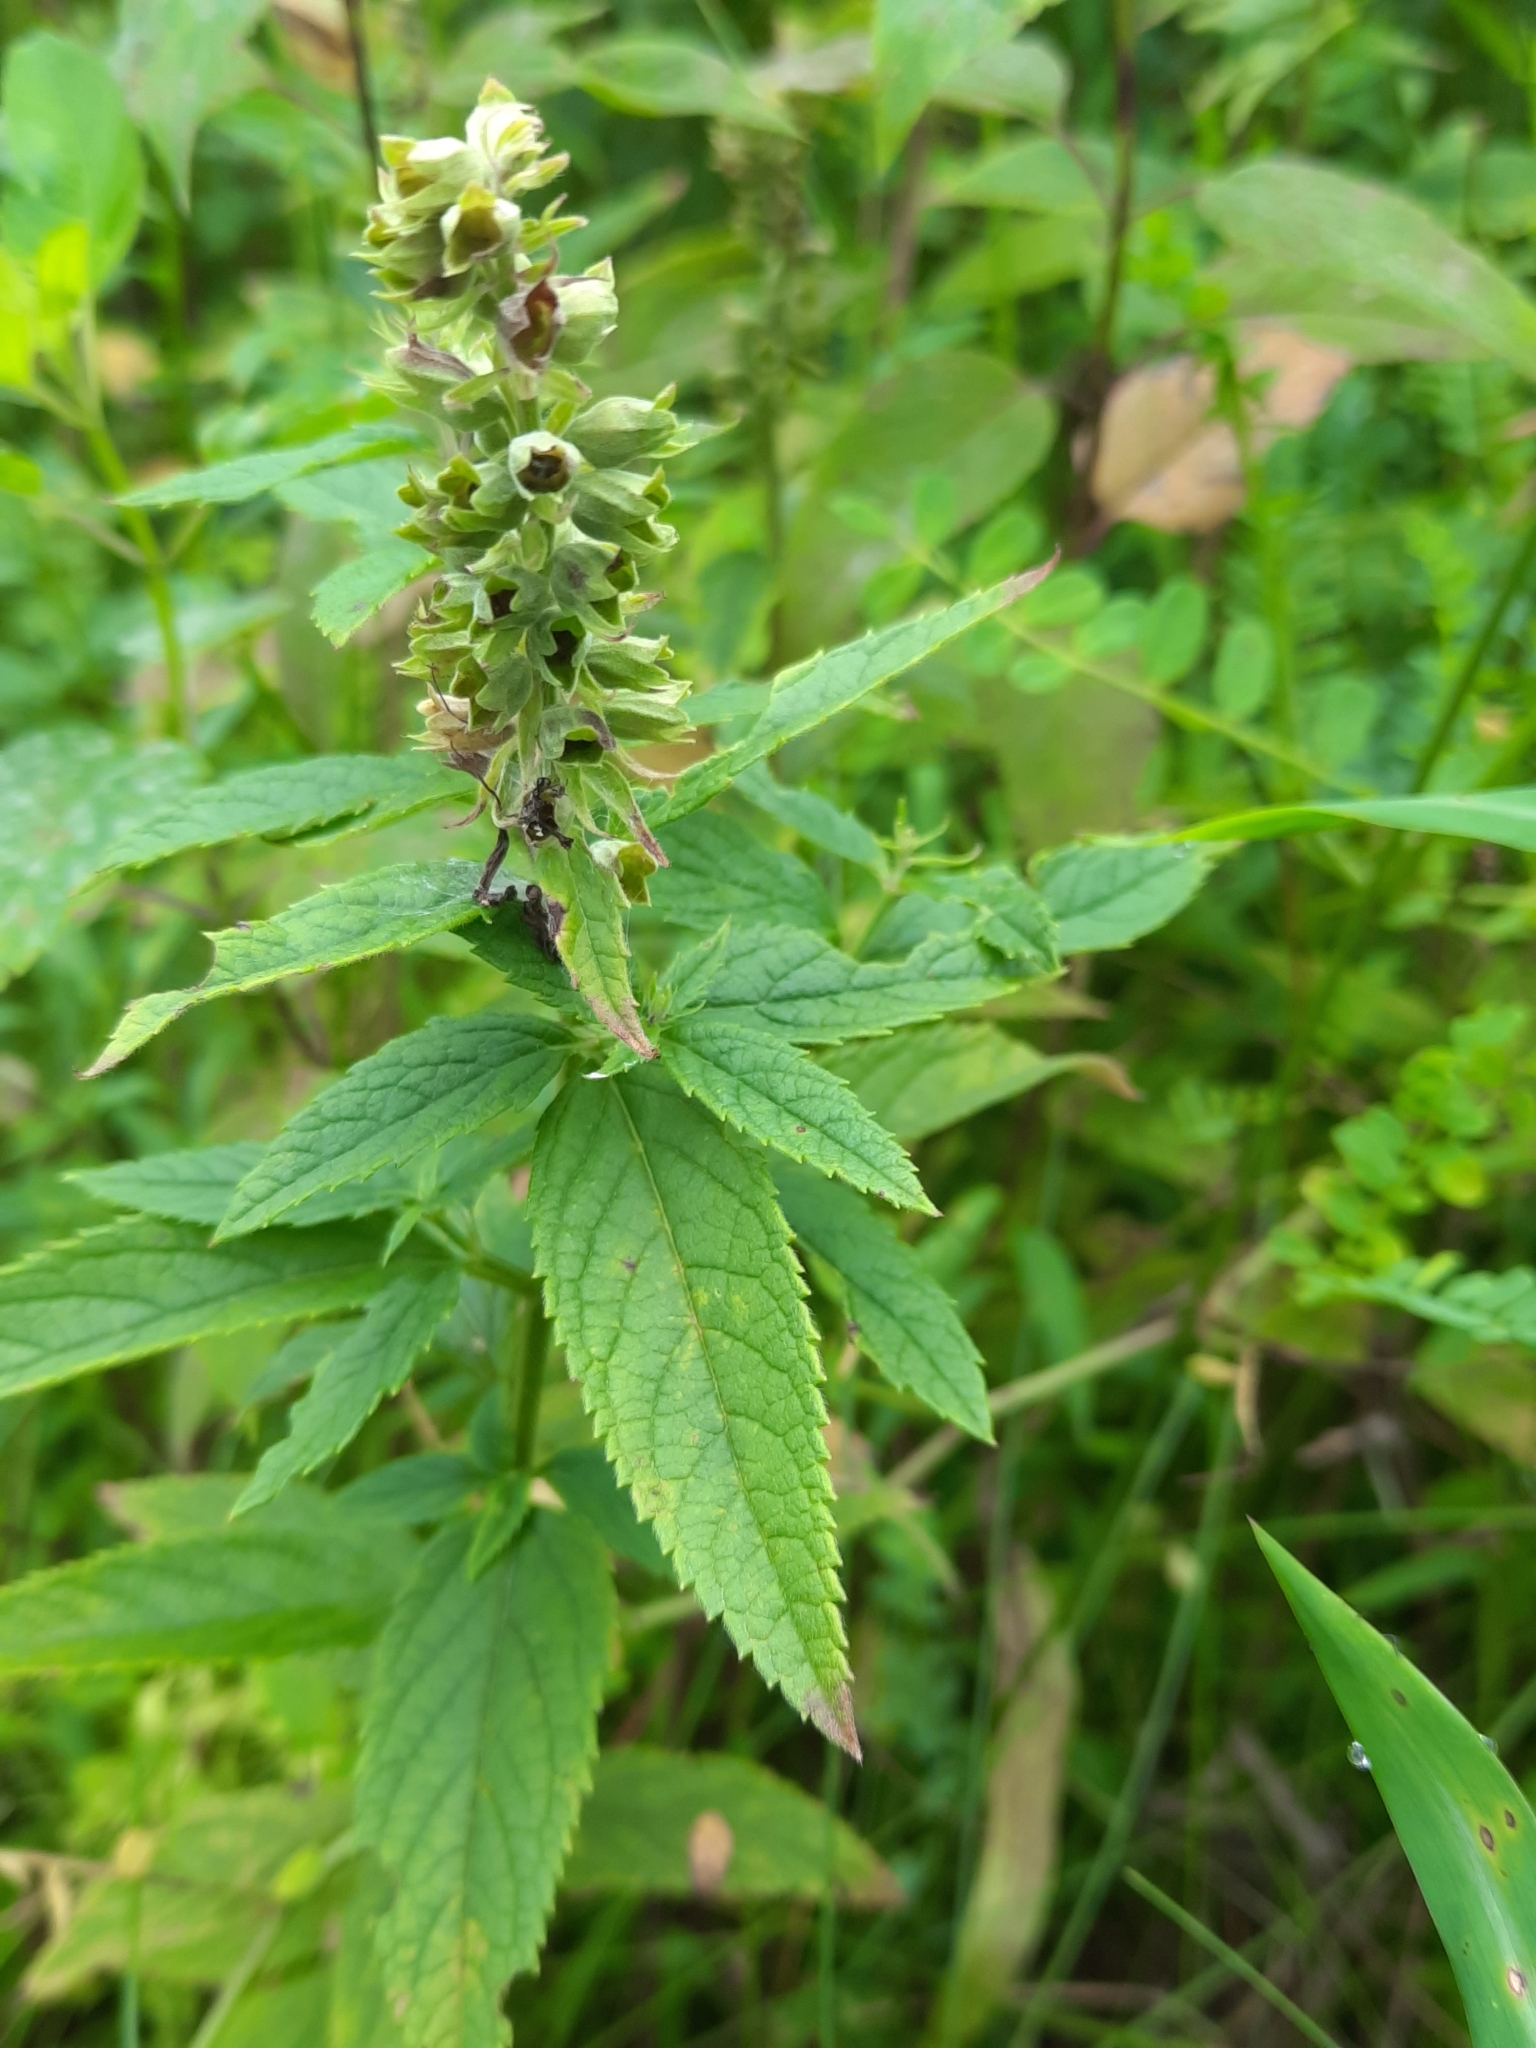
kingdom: Plantae
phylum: Tracheophyta
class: Magnoliopsida
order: Lamiales
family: Lamiaceae
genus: Teucrium
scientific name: Teucrium canadense
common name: American germander
